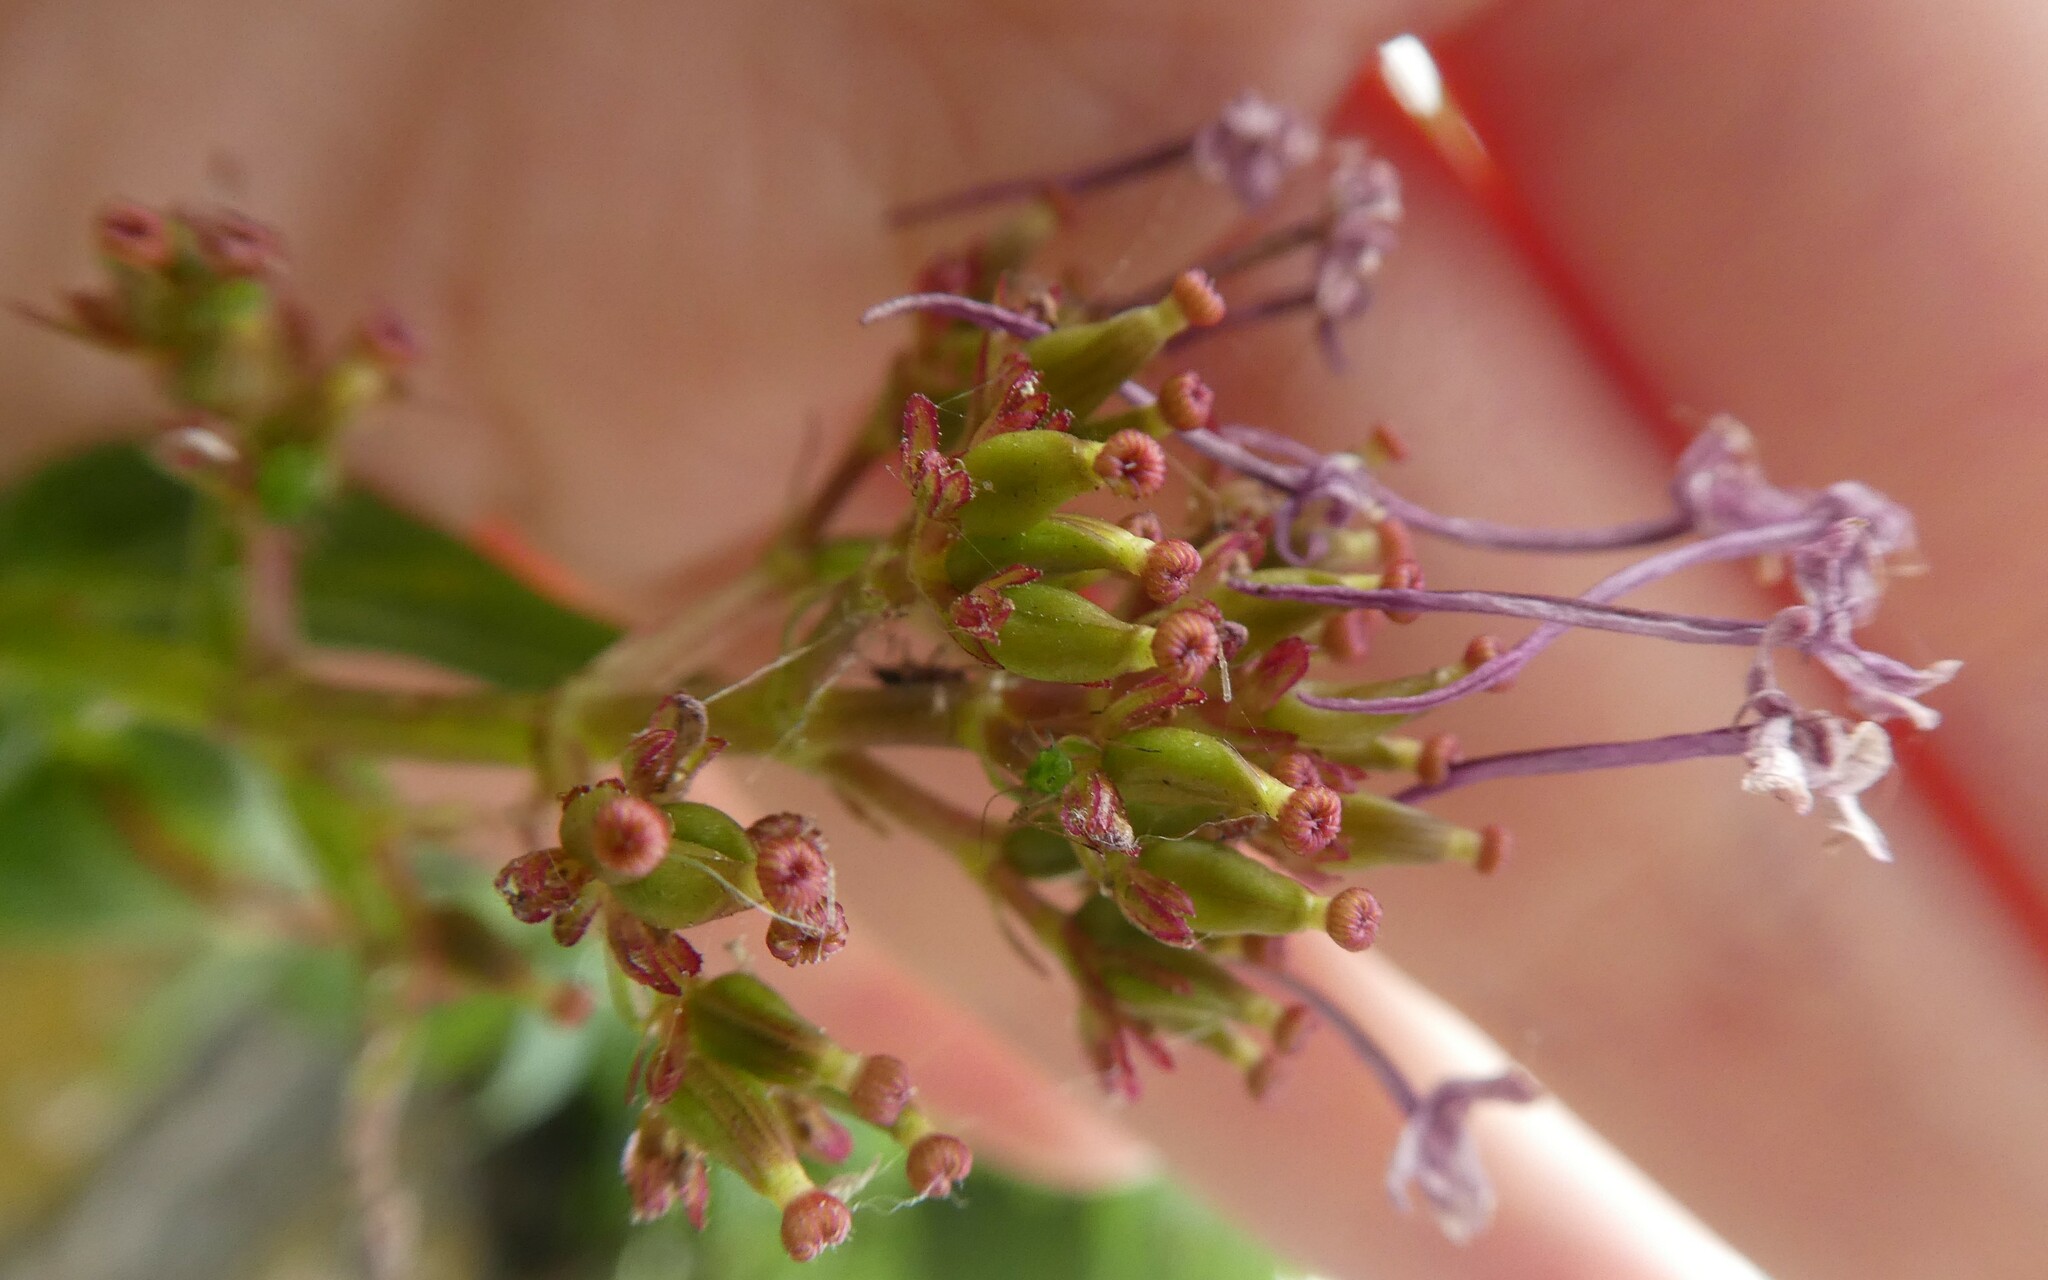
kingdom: Plantae
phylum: Tracheophyta
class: Magnoliopsida
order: Dipsacales
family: Caprifoliaceae
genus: Centranthus
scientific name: Centranthus ruber
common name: Red valerian
